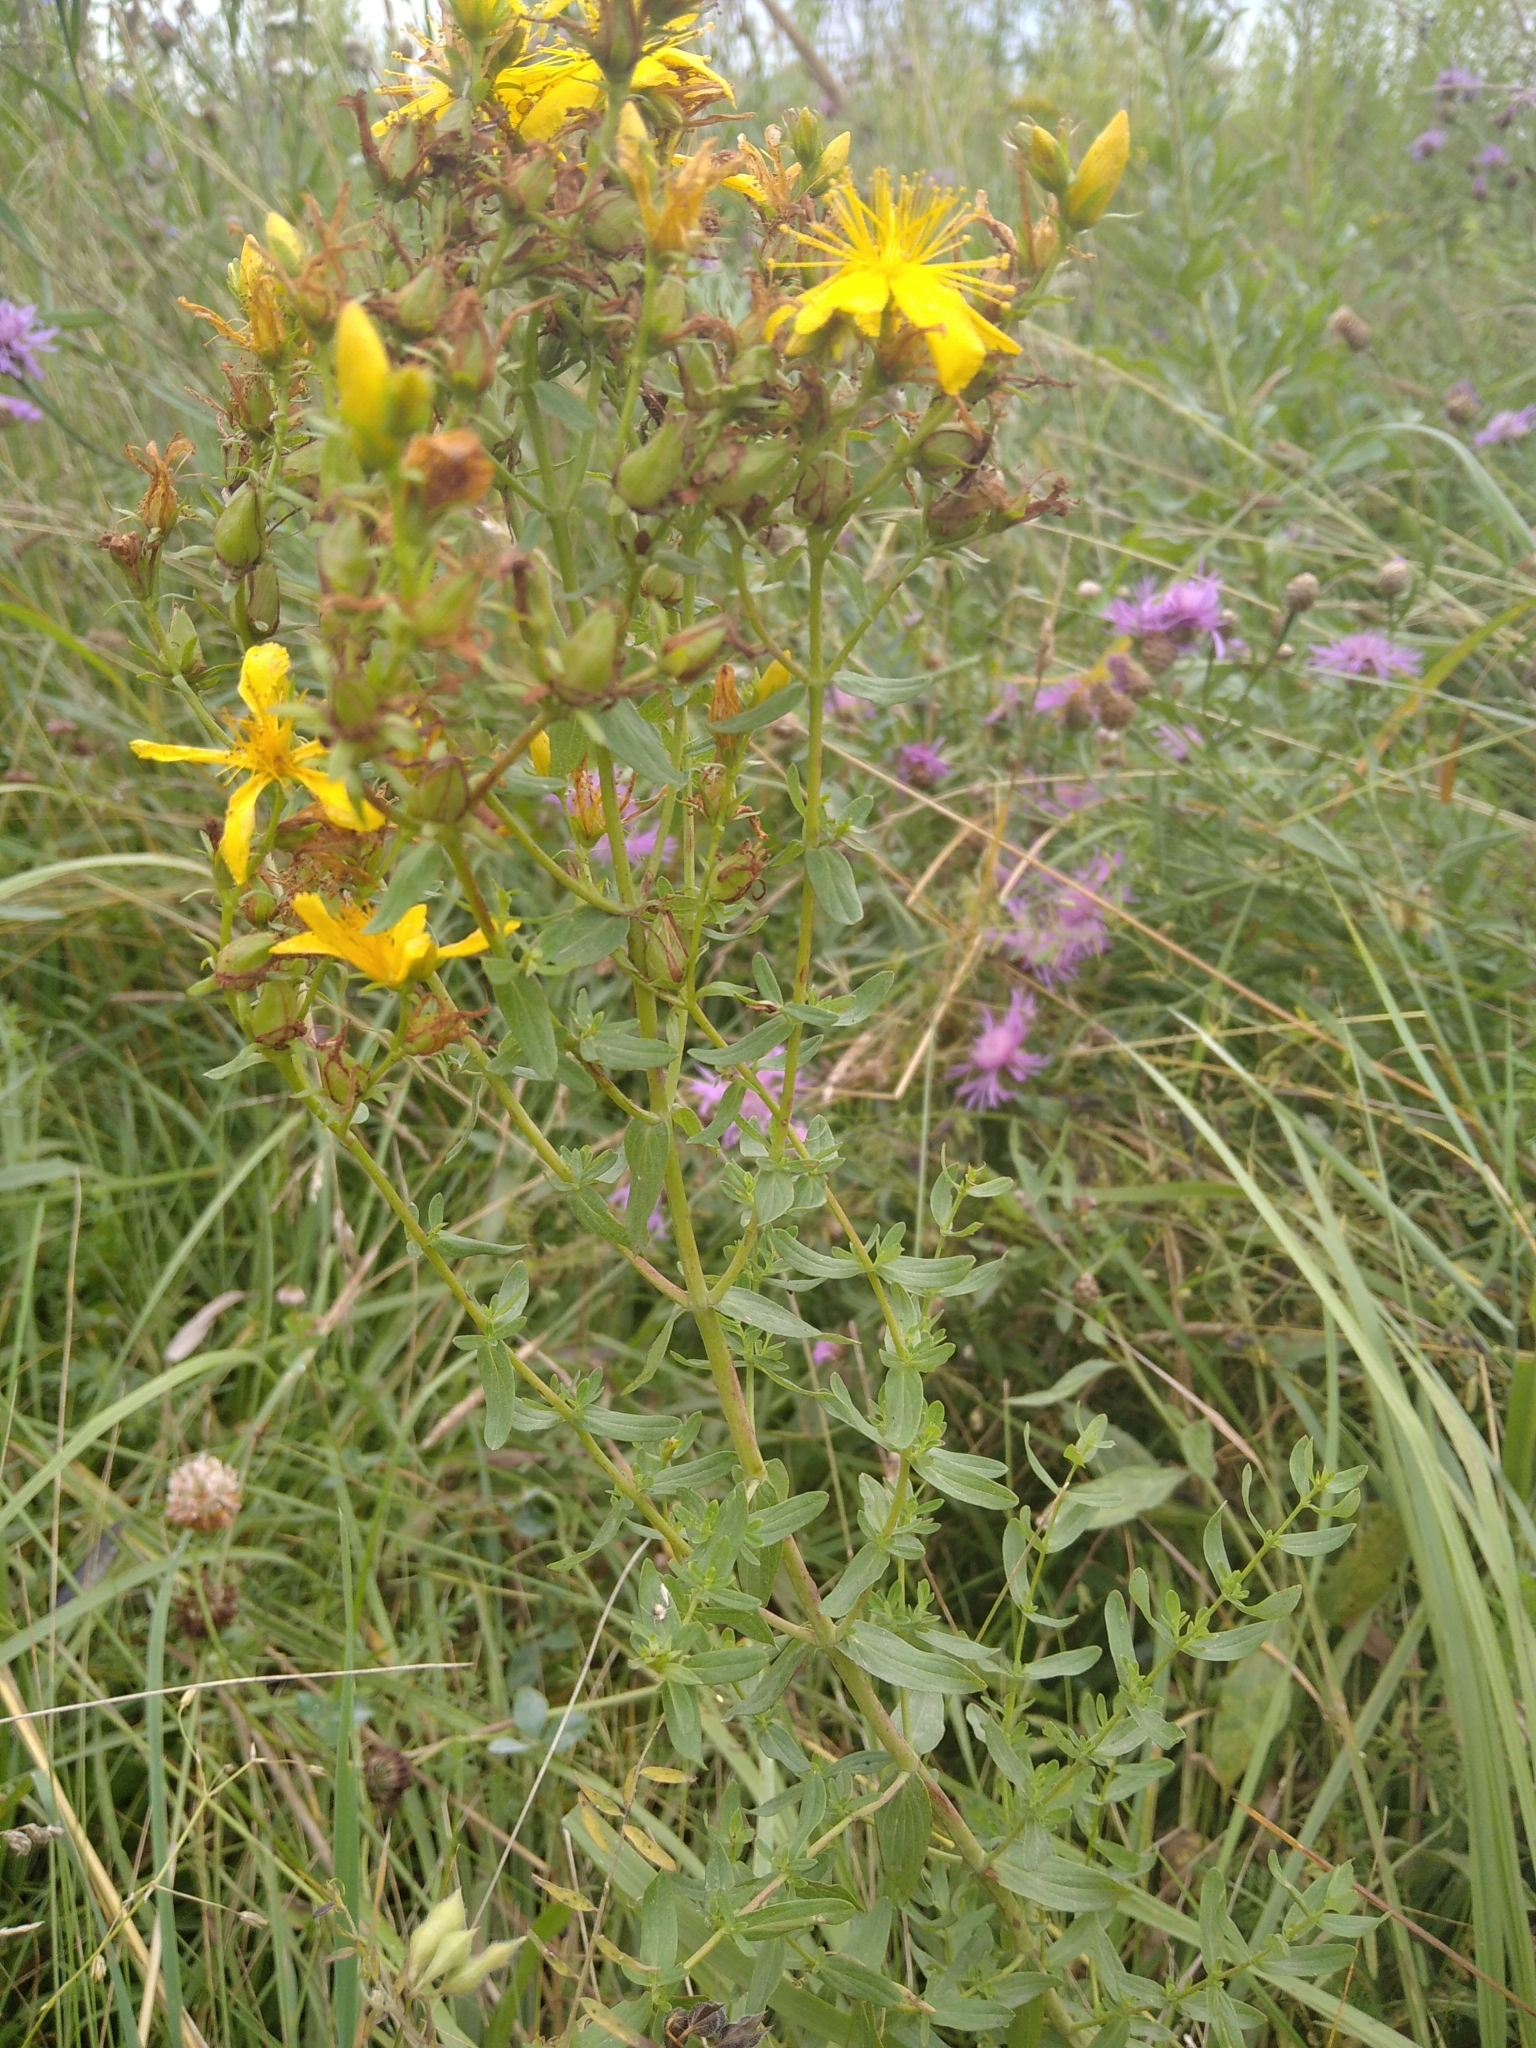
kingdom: Plantae
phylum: Tracheophyta
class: Magnoliopsida
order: Malpighiales
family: Hypericaceae
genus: Hypericum
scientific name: Hypericum perforatum
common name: Common st. johnswort
